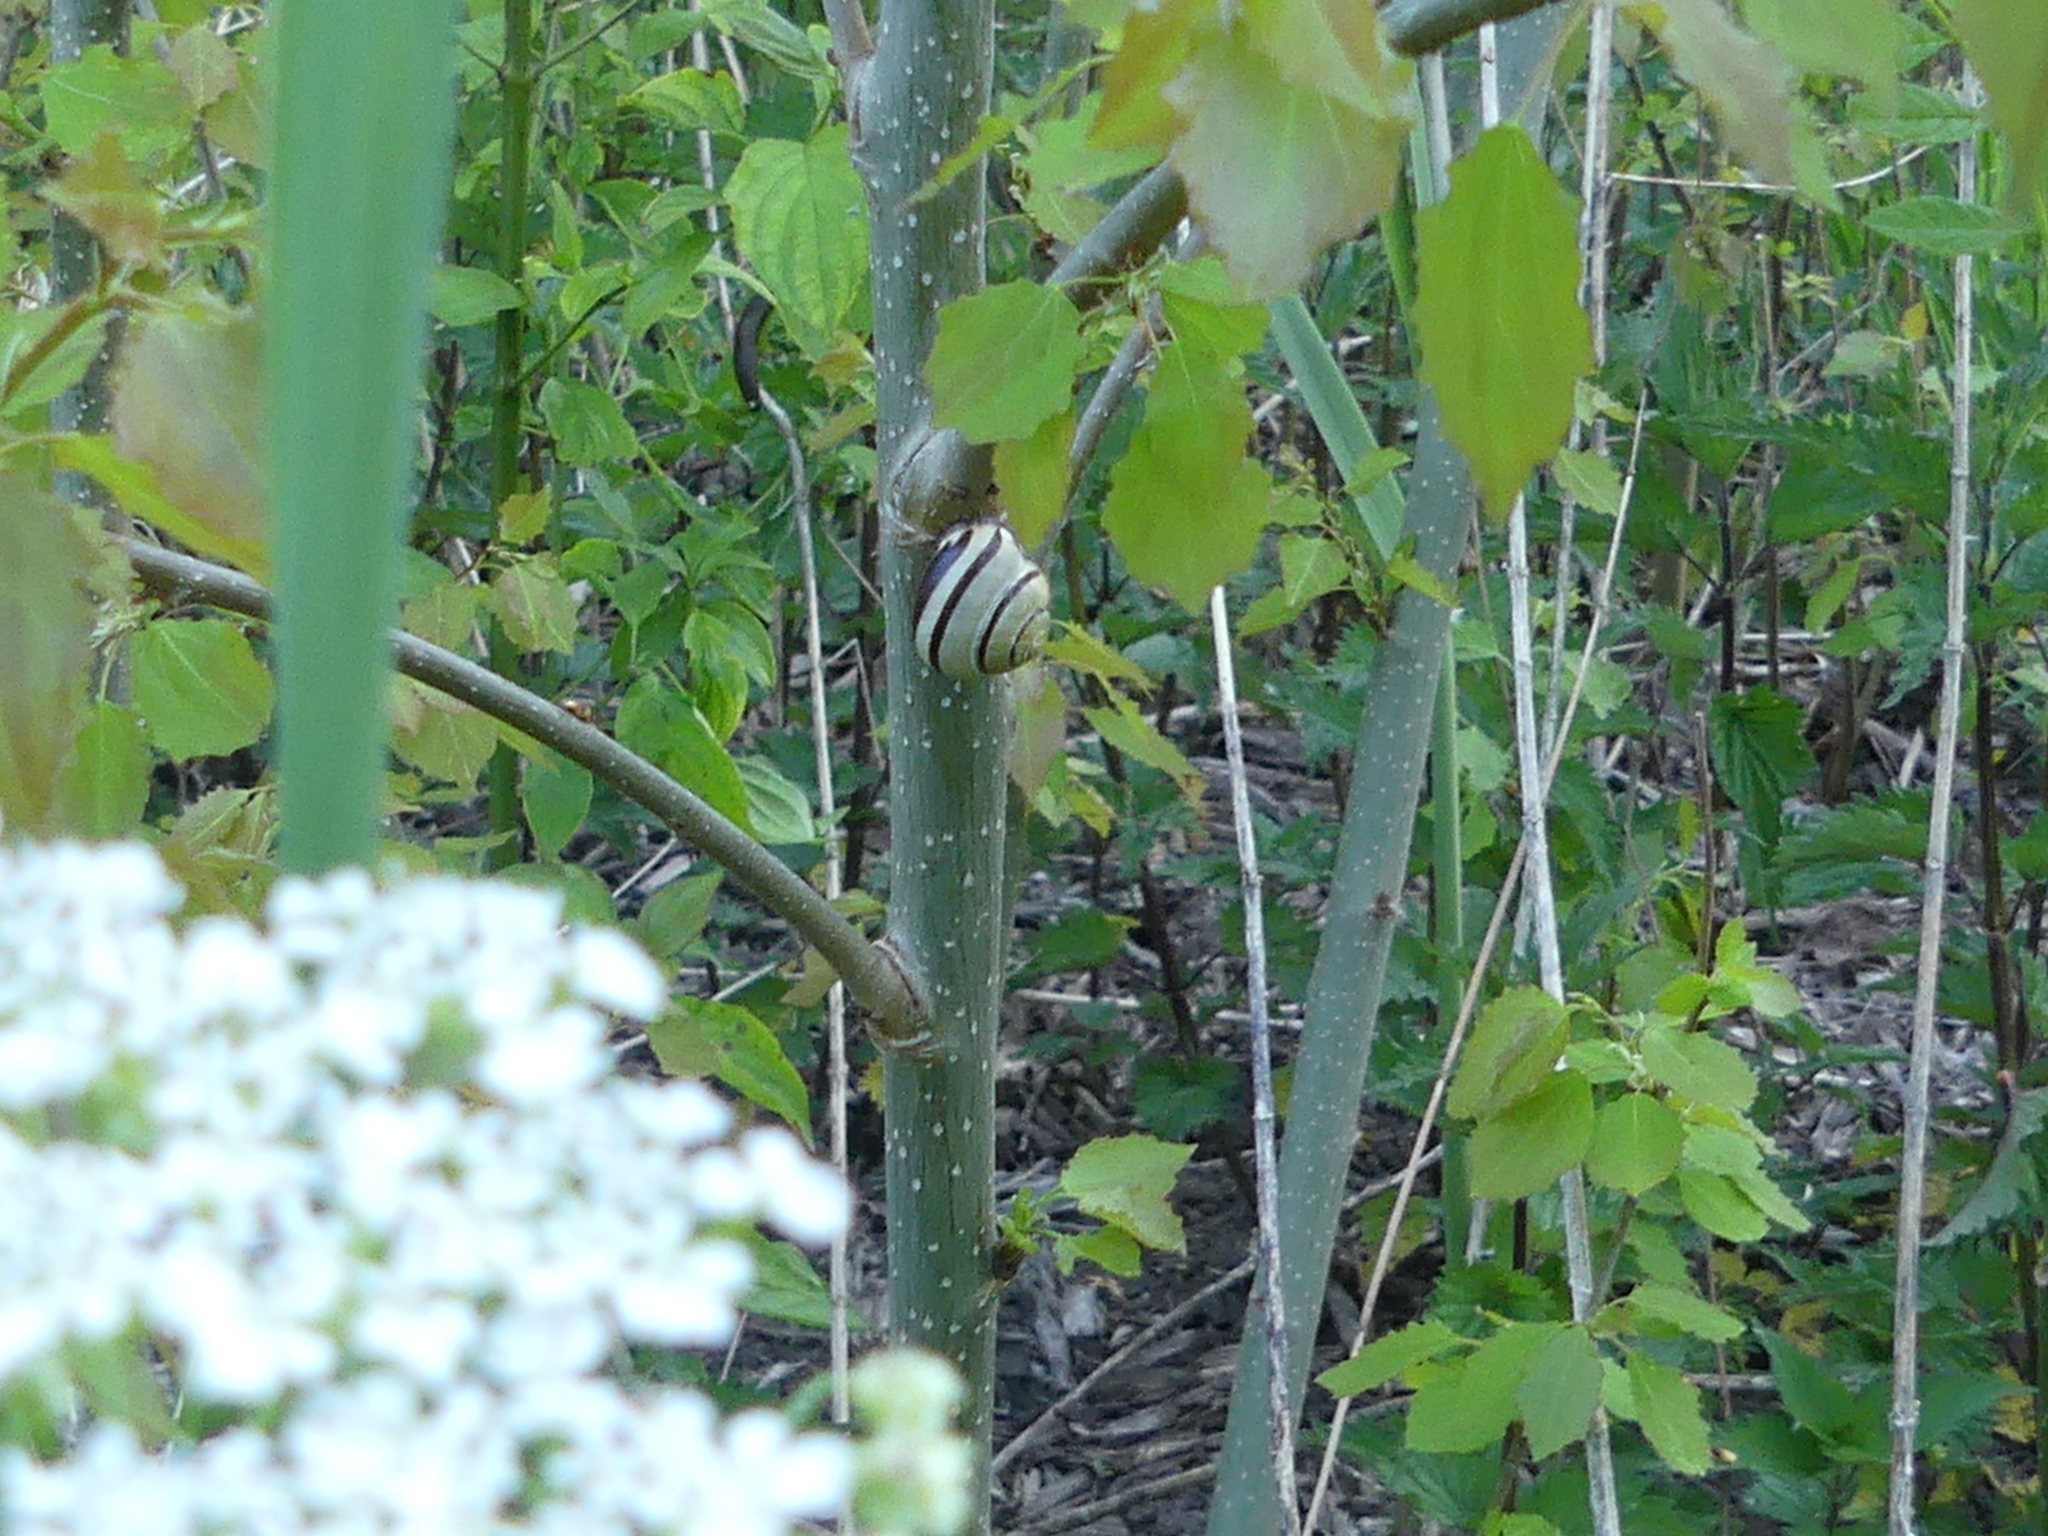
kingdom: Animalia
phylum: Mollusca
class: Gastropoda
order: Stylommatophora
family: Helicidae
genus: Cepaea
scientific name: Cepaea nemoralis
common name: Grovesnail
